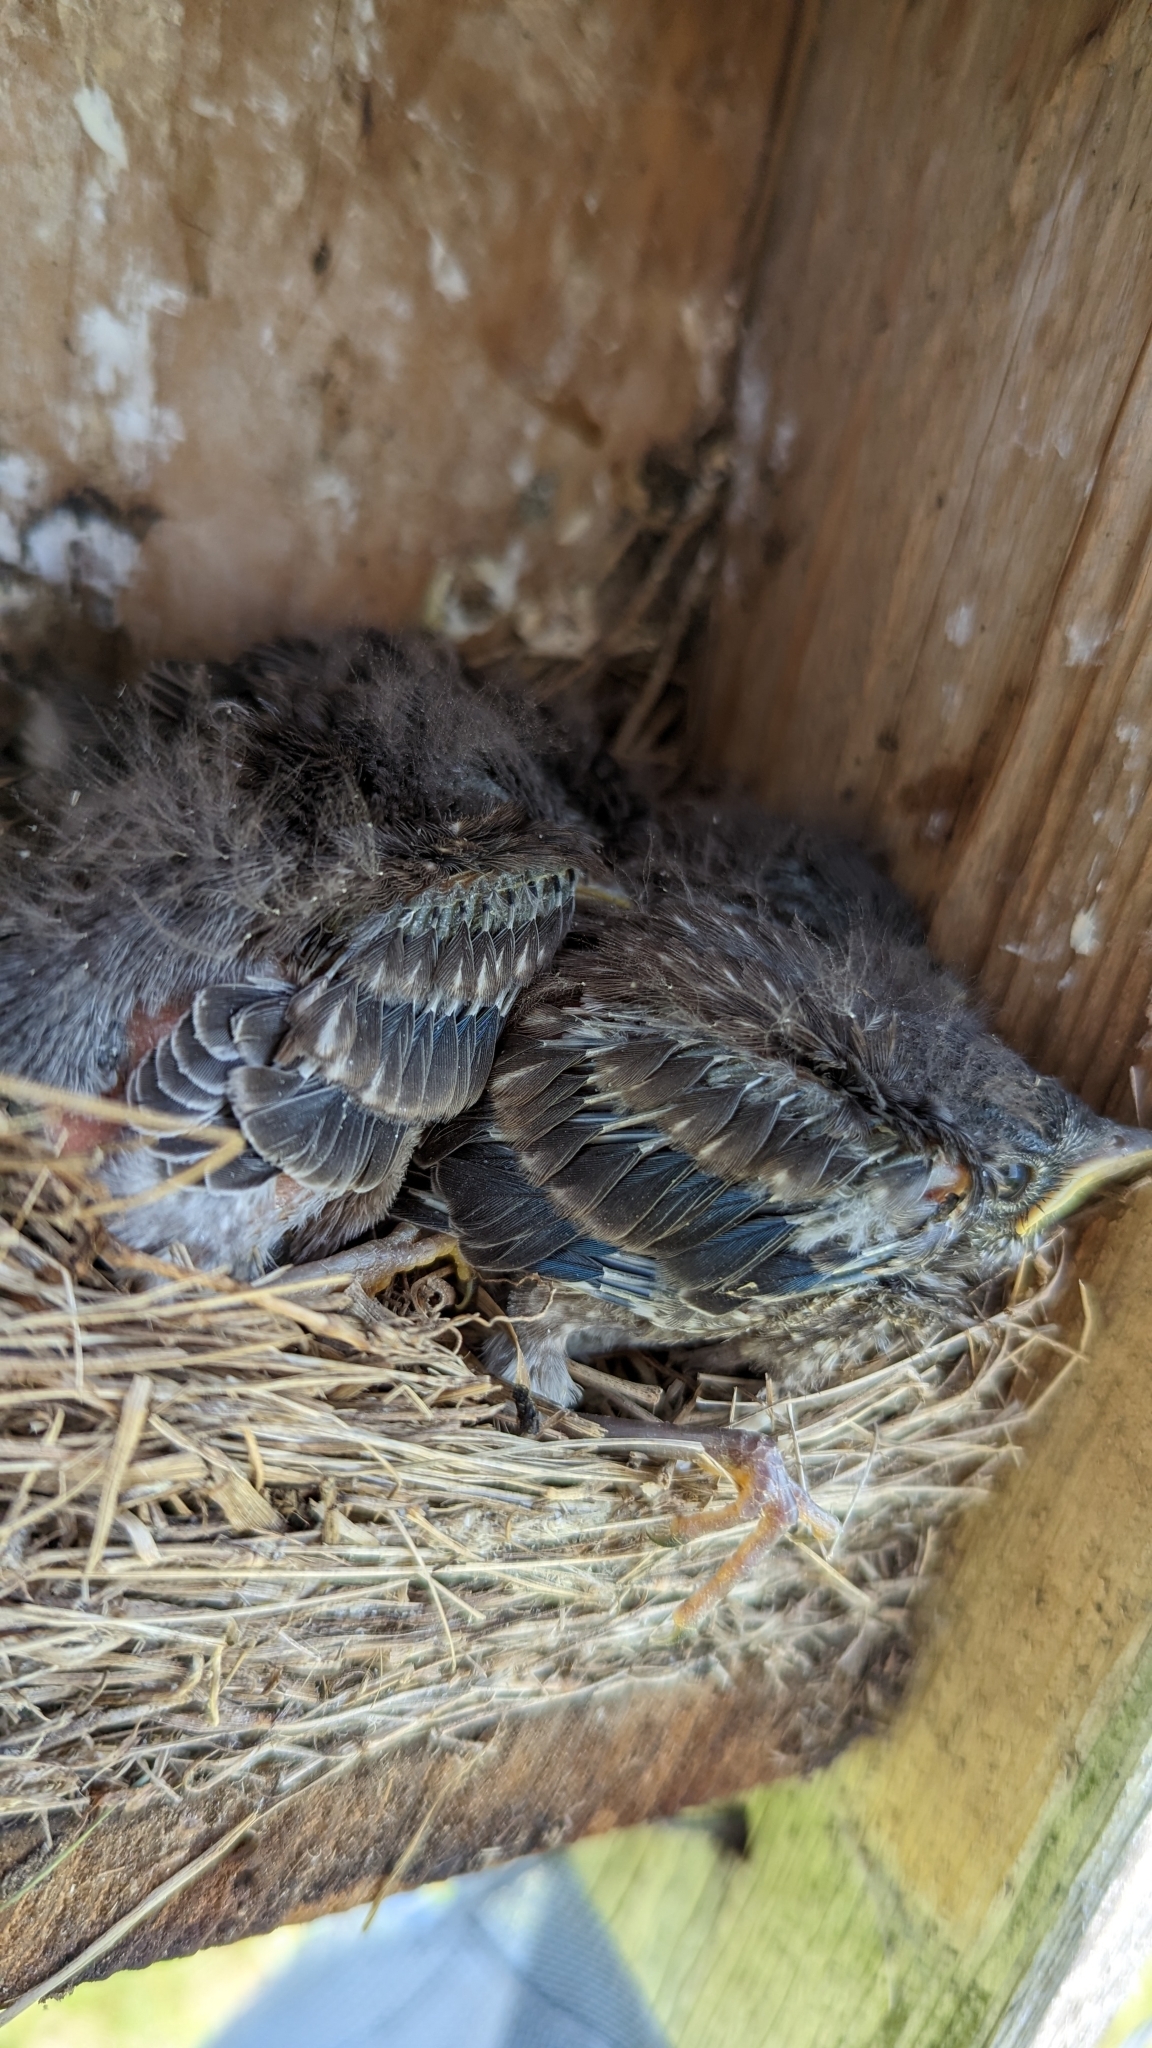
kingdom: Animalia
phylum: Chordata
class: Aves
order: Passeriformes
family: Turdidae
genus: Sialia
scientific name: Sialia sialis
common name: Eastern bluebird
